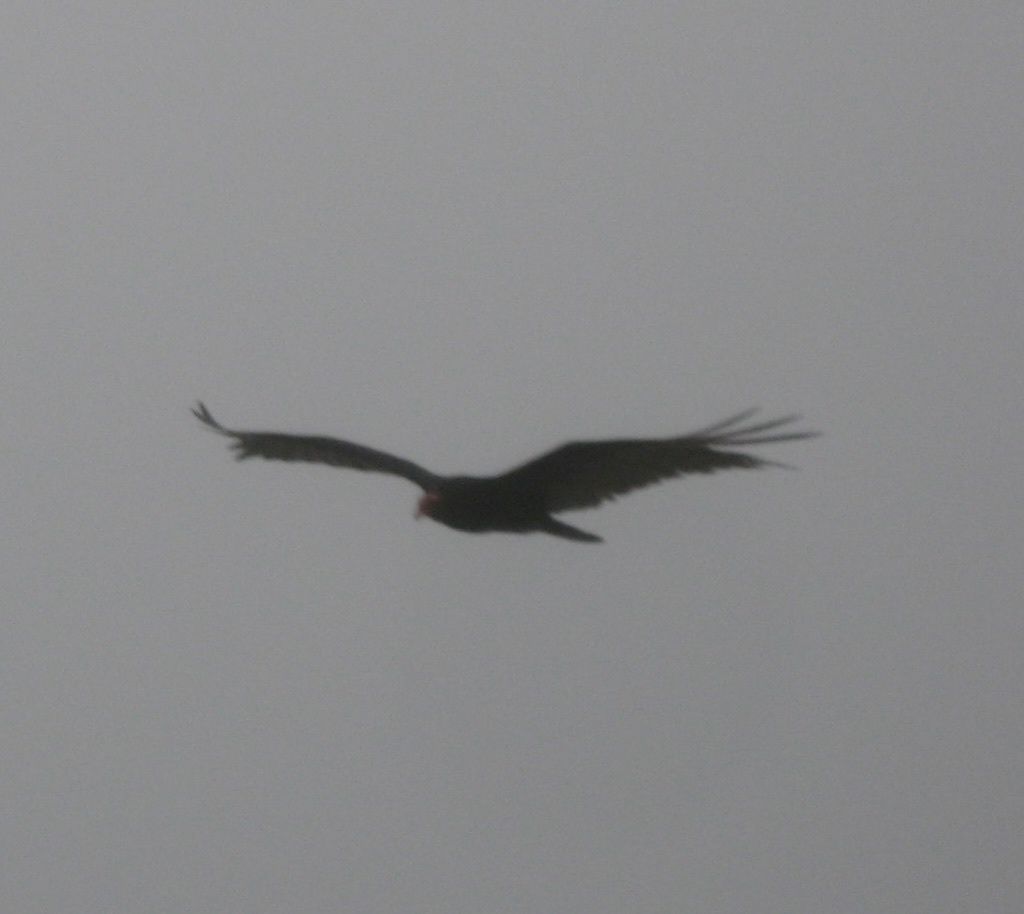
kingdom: Animalia
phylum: Chordata
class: Aves
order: Accipitriformes
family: Cathartidae
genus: Cathartes
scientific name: Cathartes aura
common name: Turkey vulture
